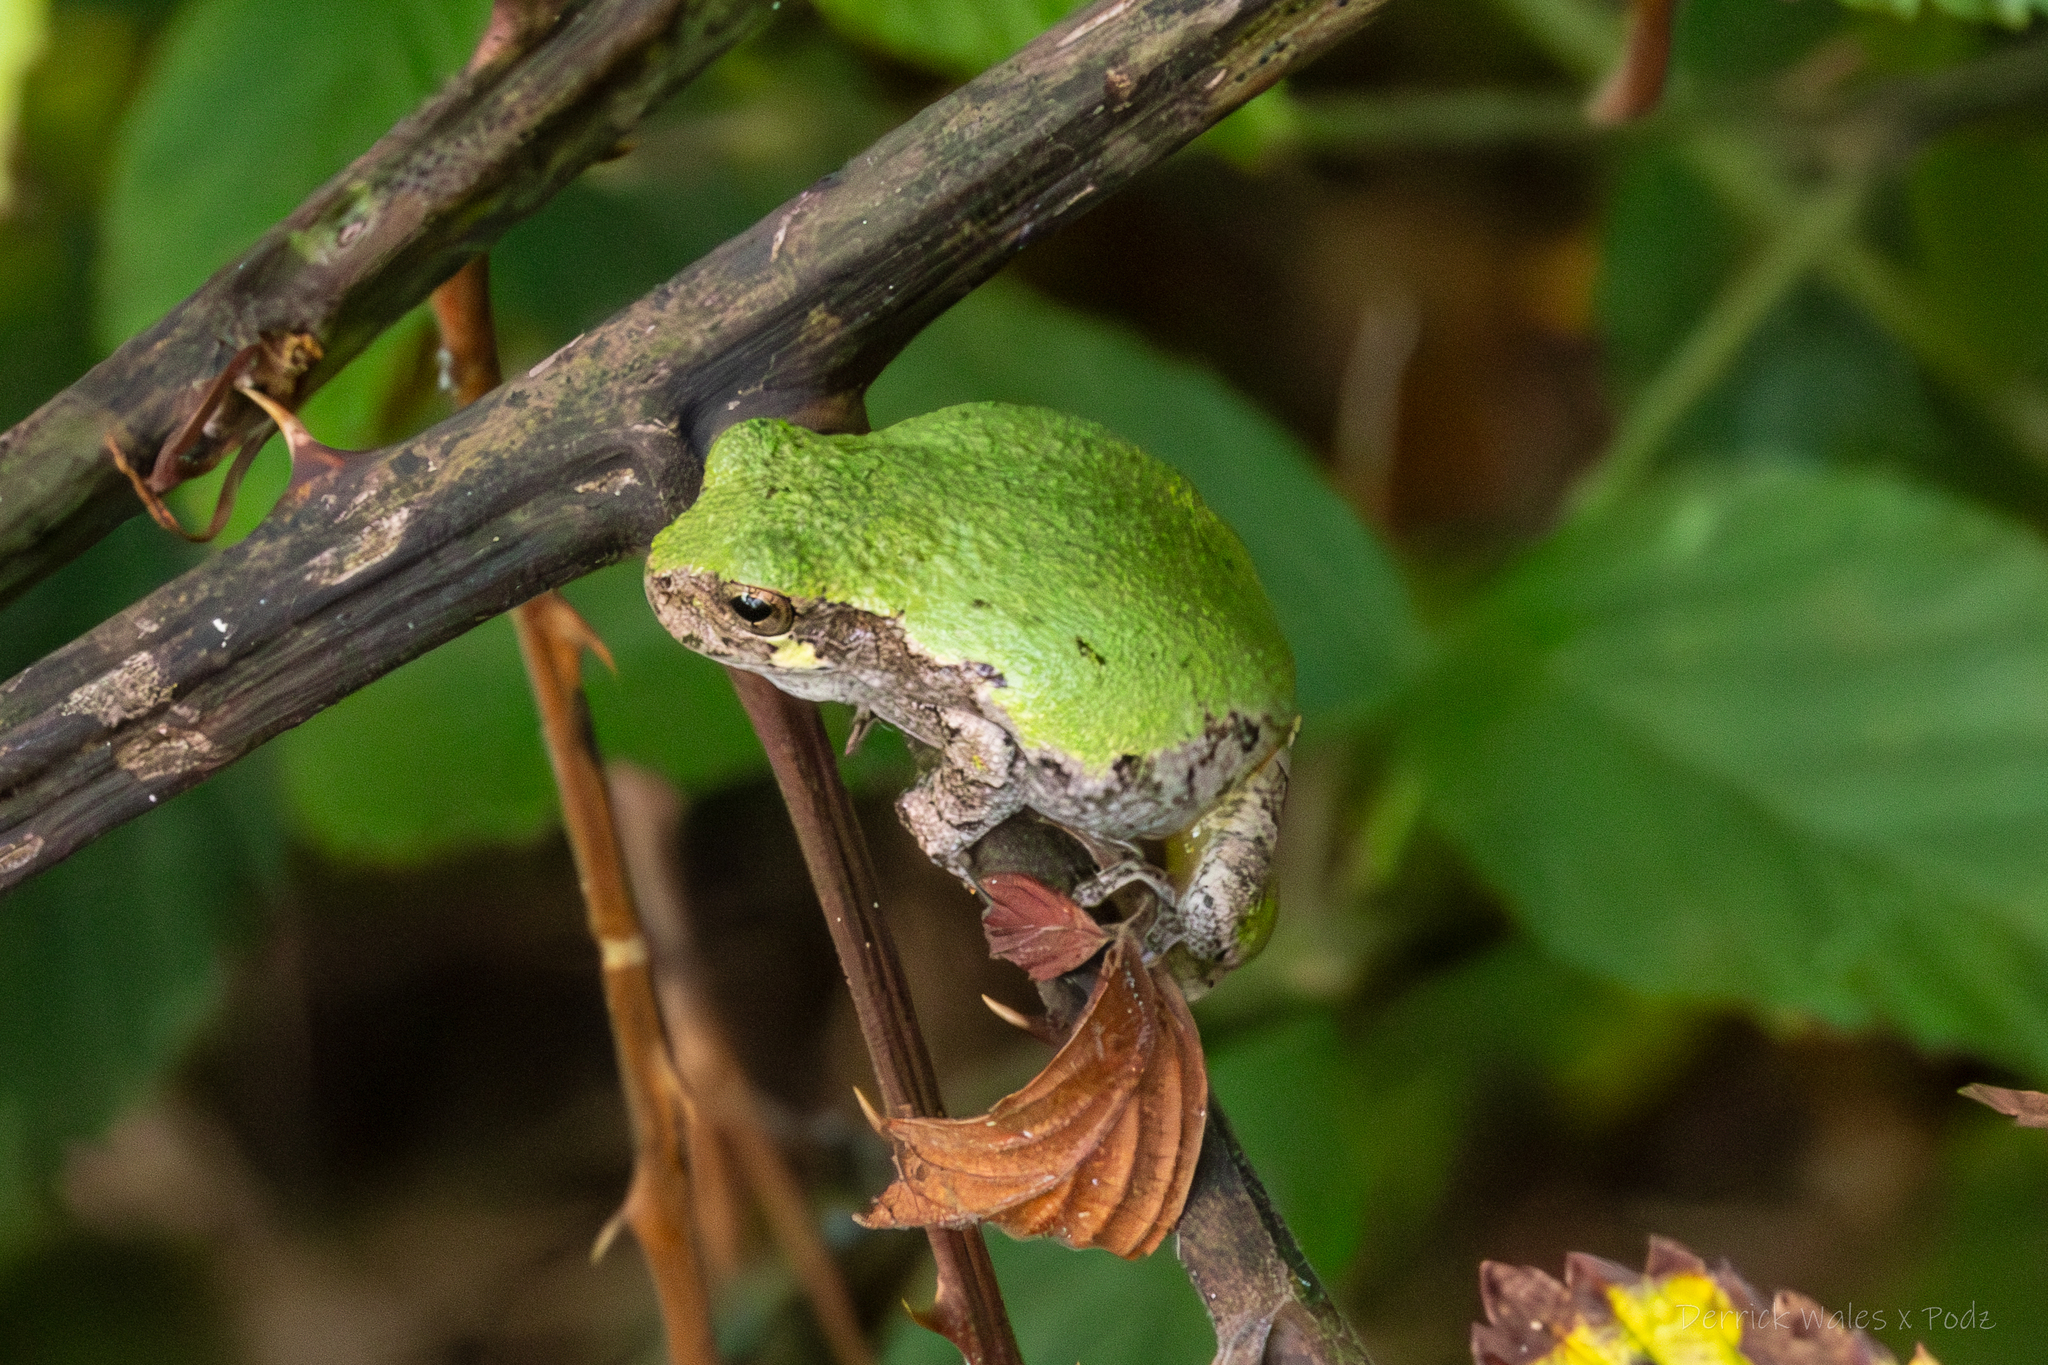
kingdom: Animalia
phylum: Chordata
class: Amphibia
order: Anura
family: Hylidae
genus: Dryophytes
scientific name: Dryophytes chrysoscelis
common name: Cope's gray treefrog
